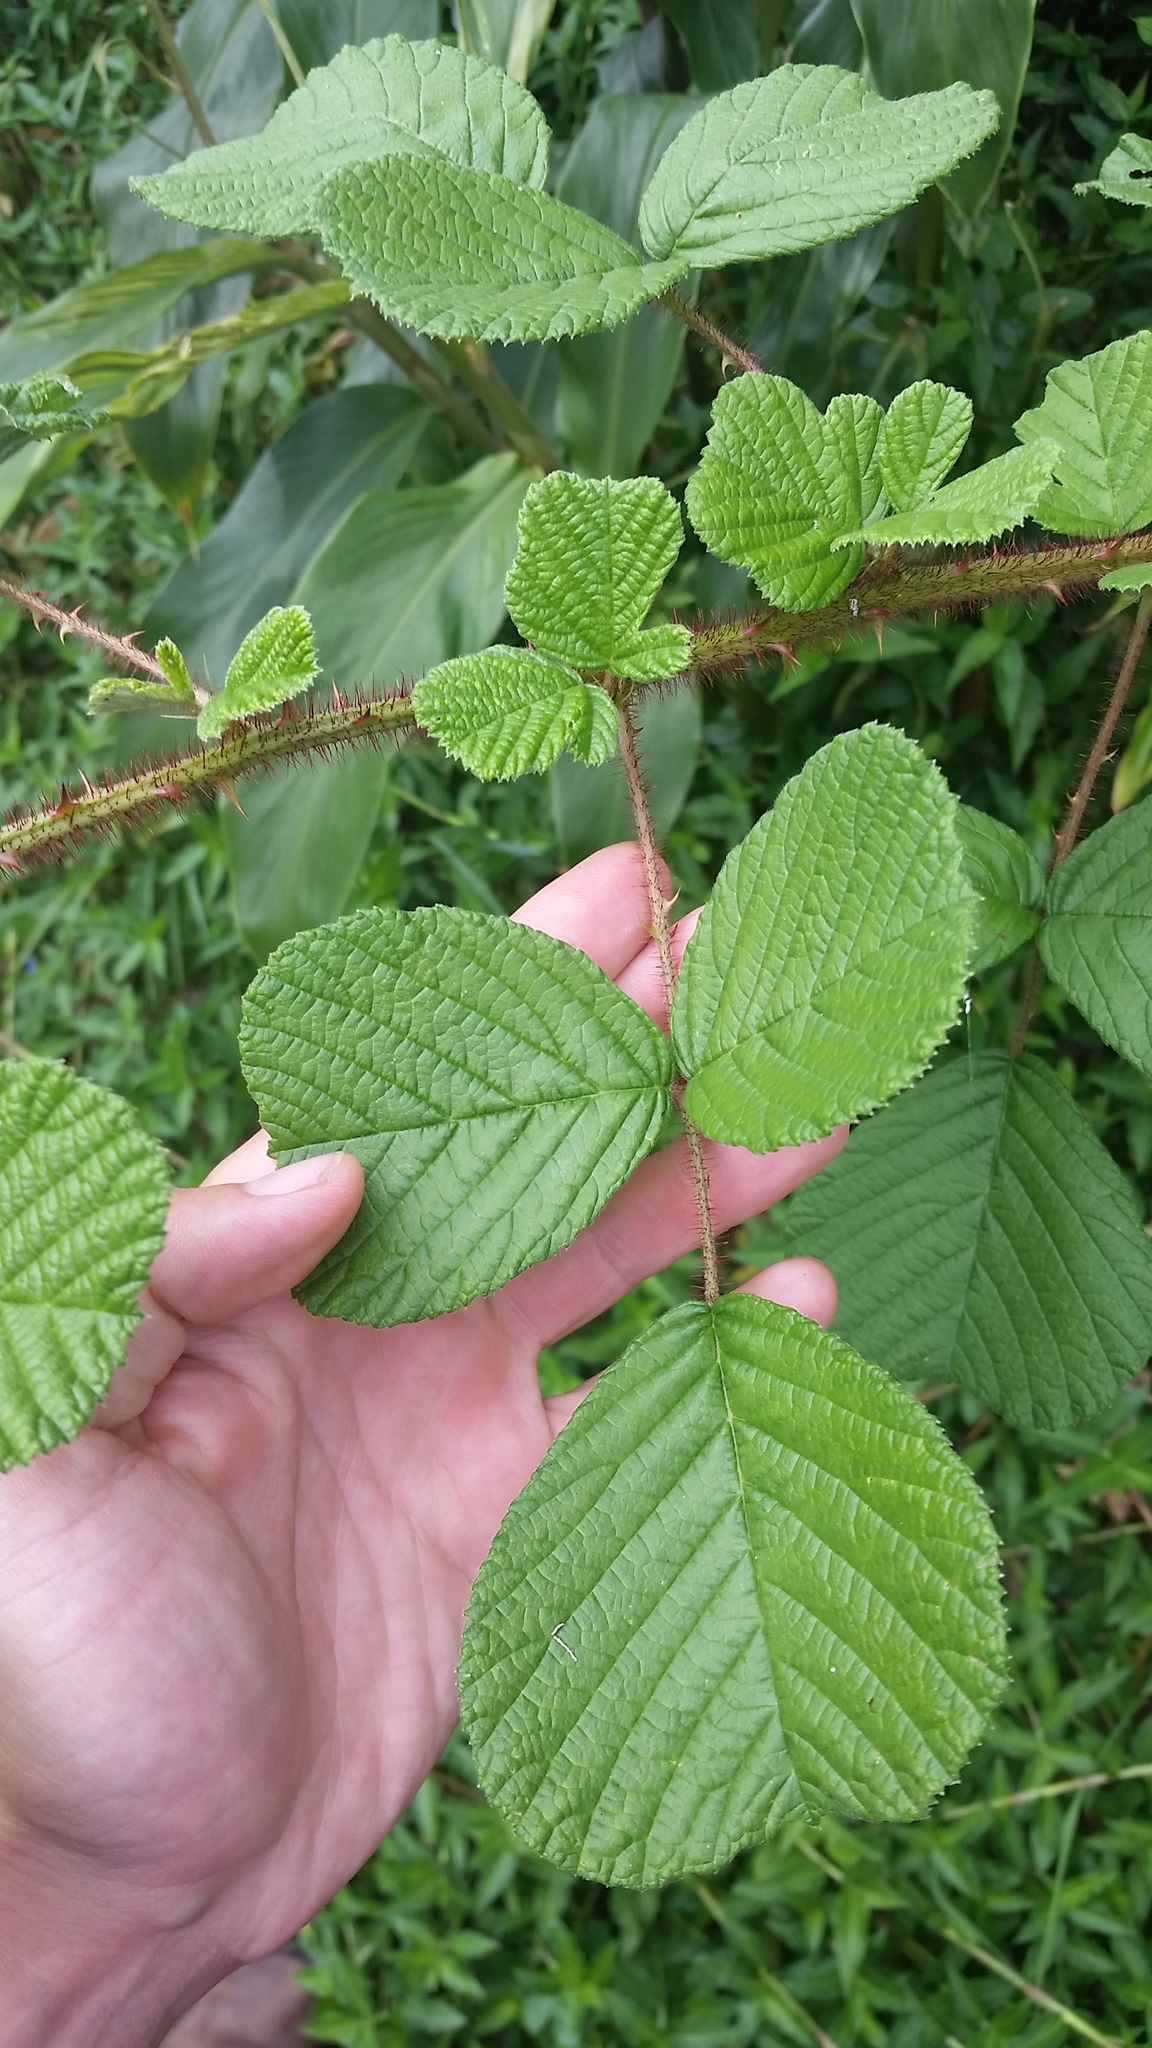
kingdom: Plantae
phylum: Tracheophyta
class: Magnoliopsida
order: Rosales
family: Rosaceae
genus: Rubus
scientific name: Rubus ellipticus
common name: Cheeseberry
